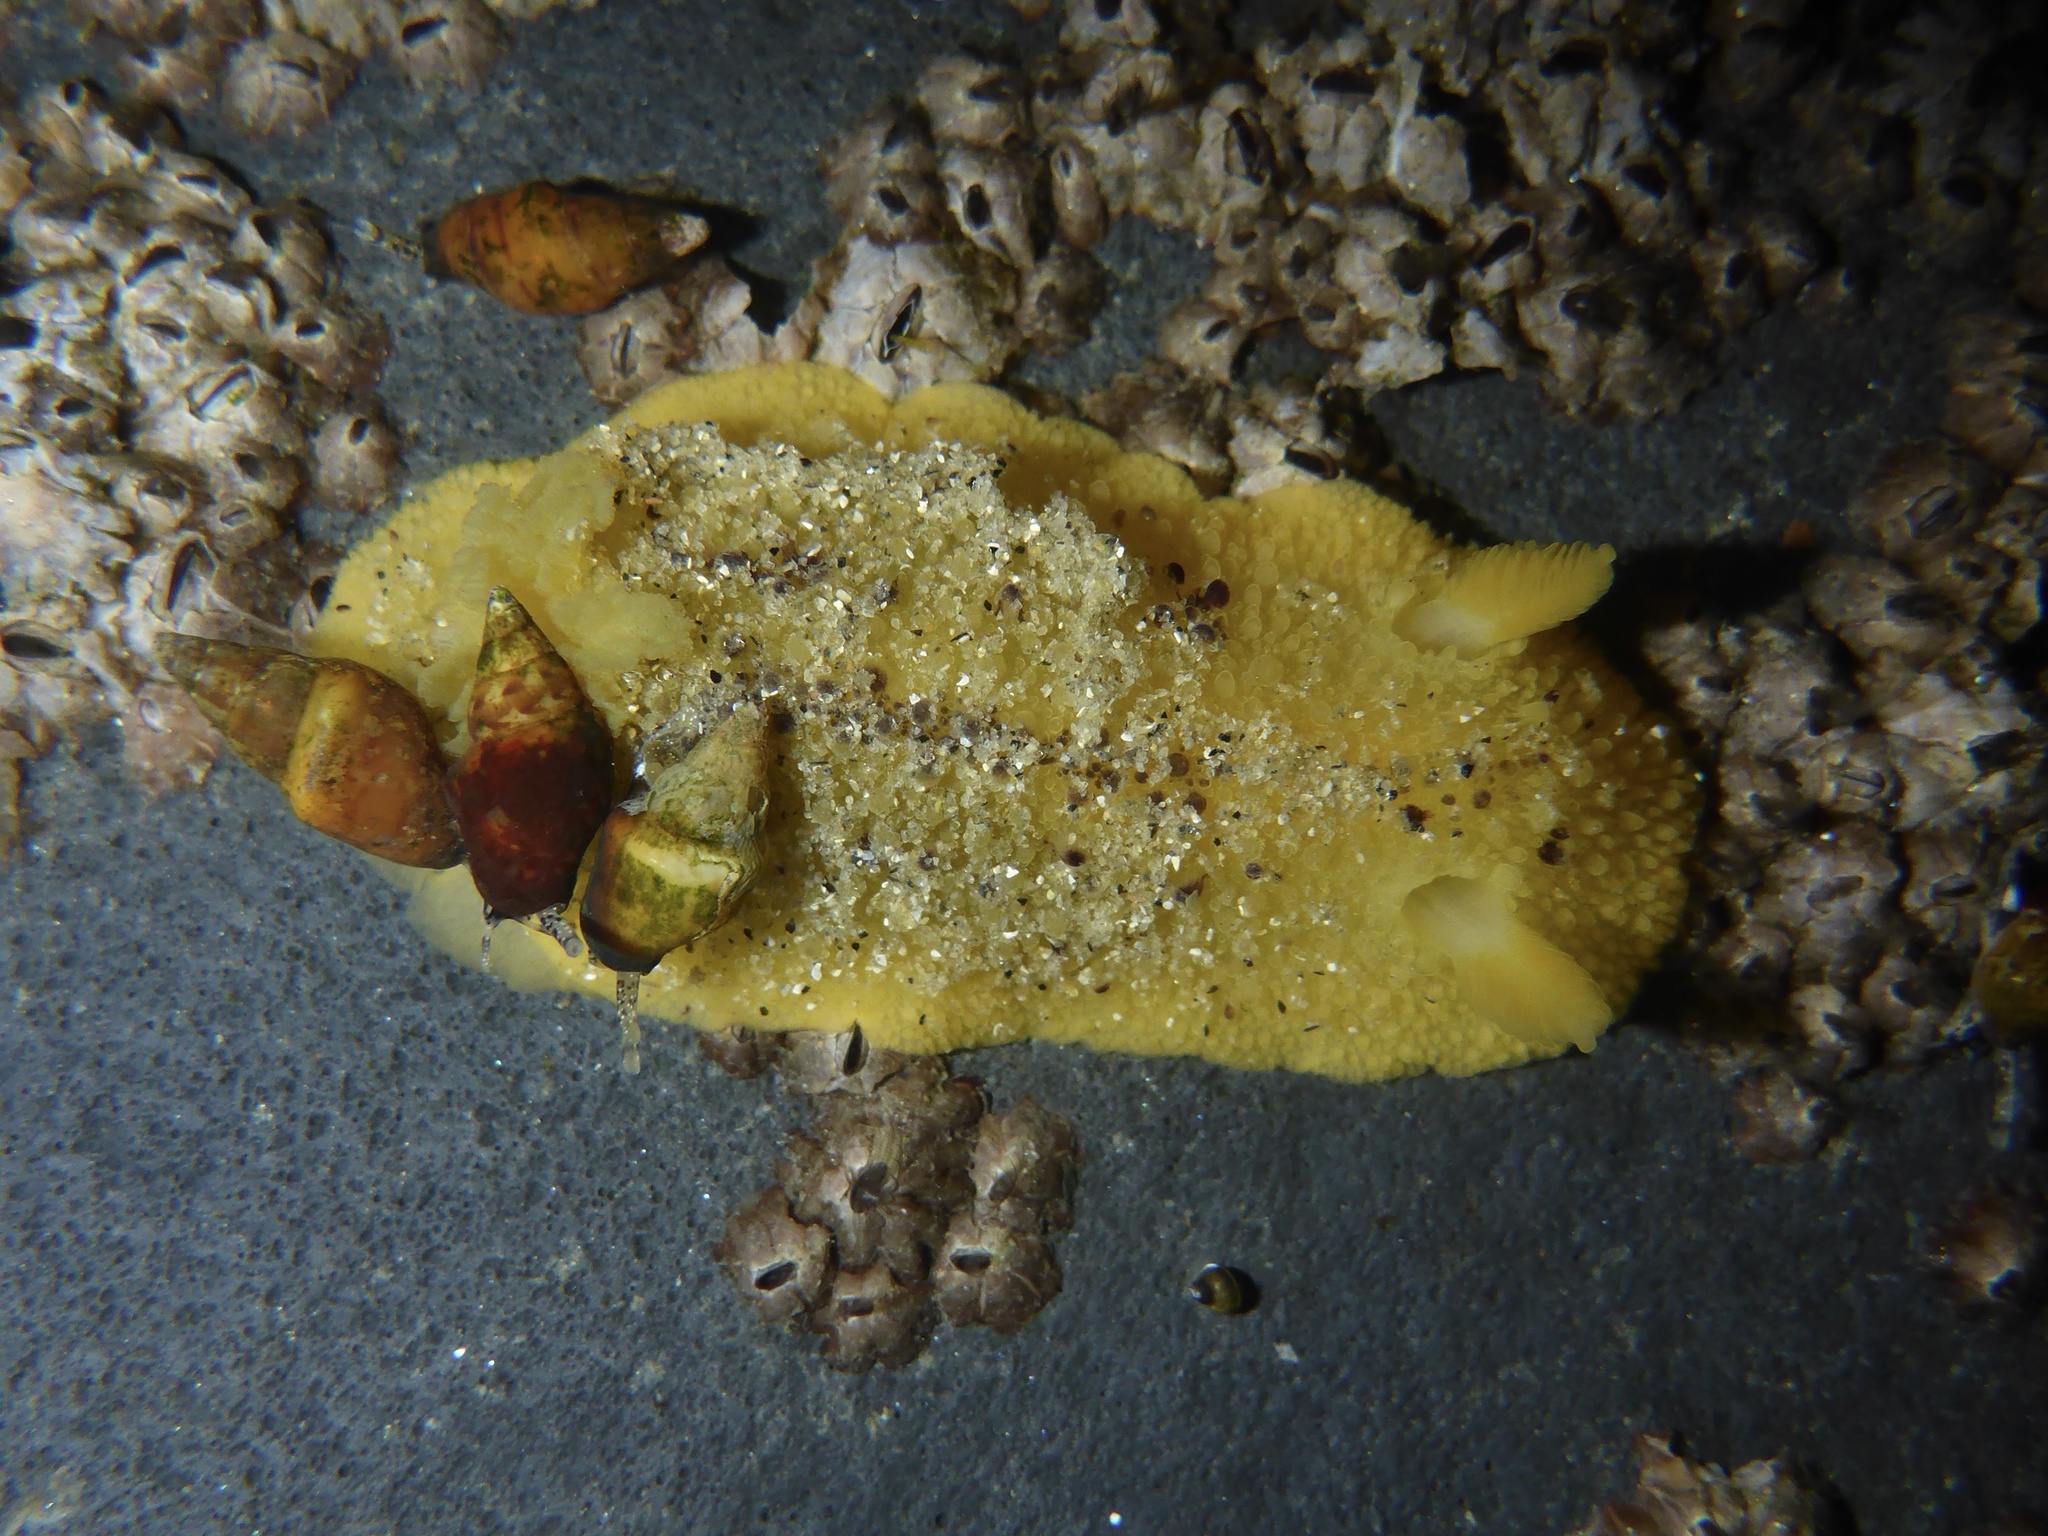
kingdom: Animalia
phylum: Mollusca
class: Gastropoda
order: Nudibranchia
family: Dorididae
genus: Doris
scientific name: Doris montereyensis
